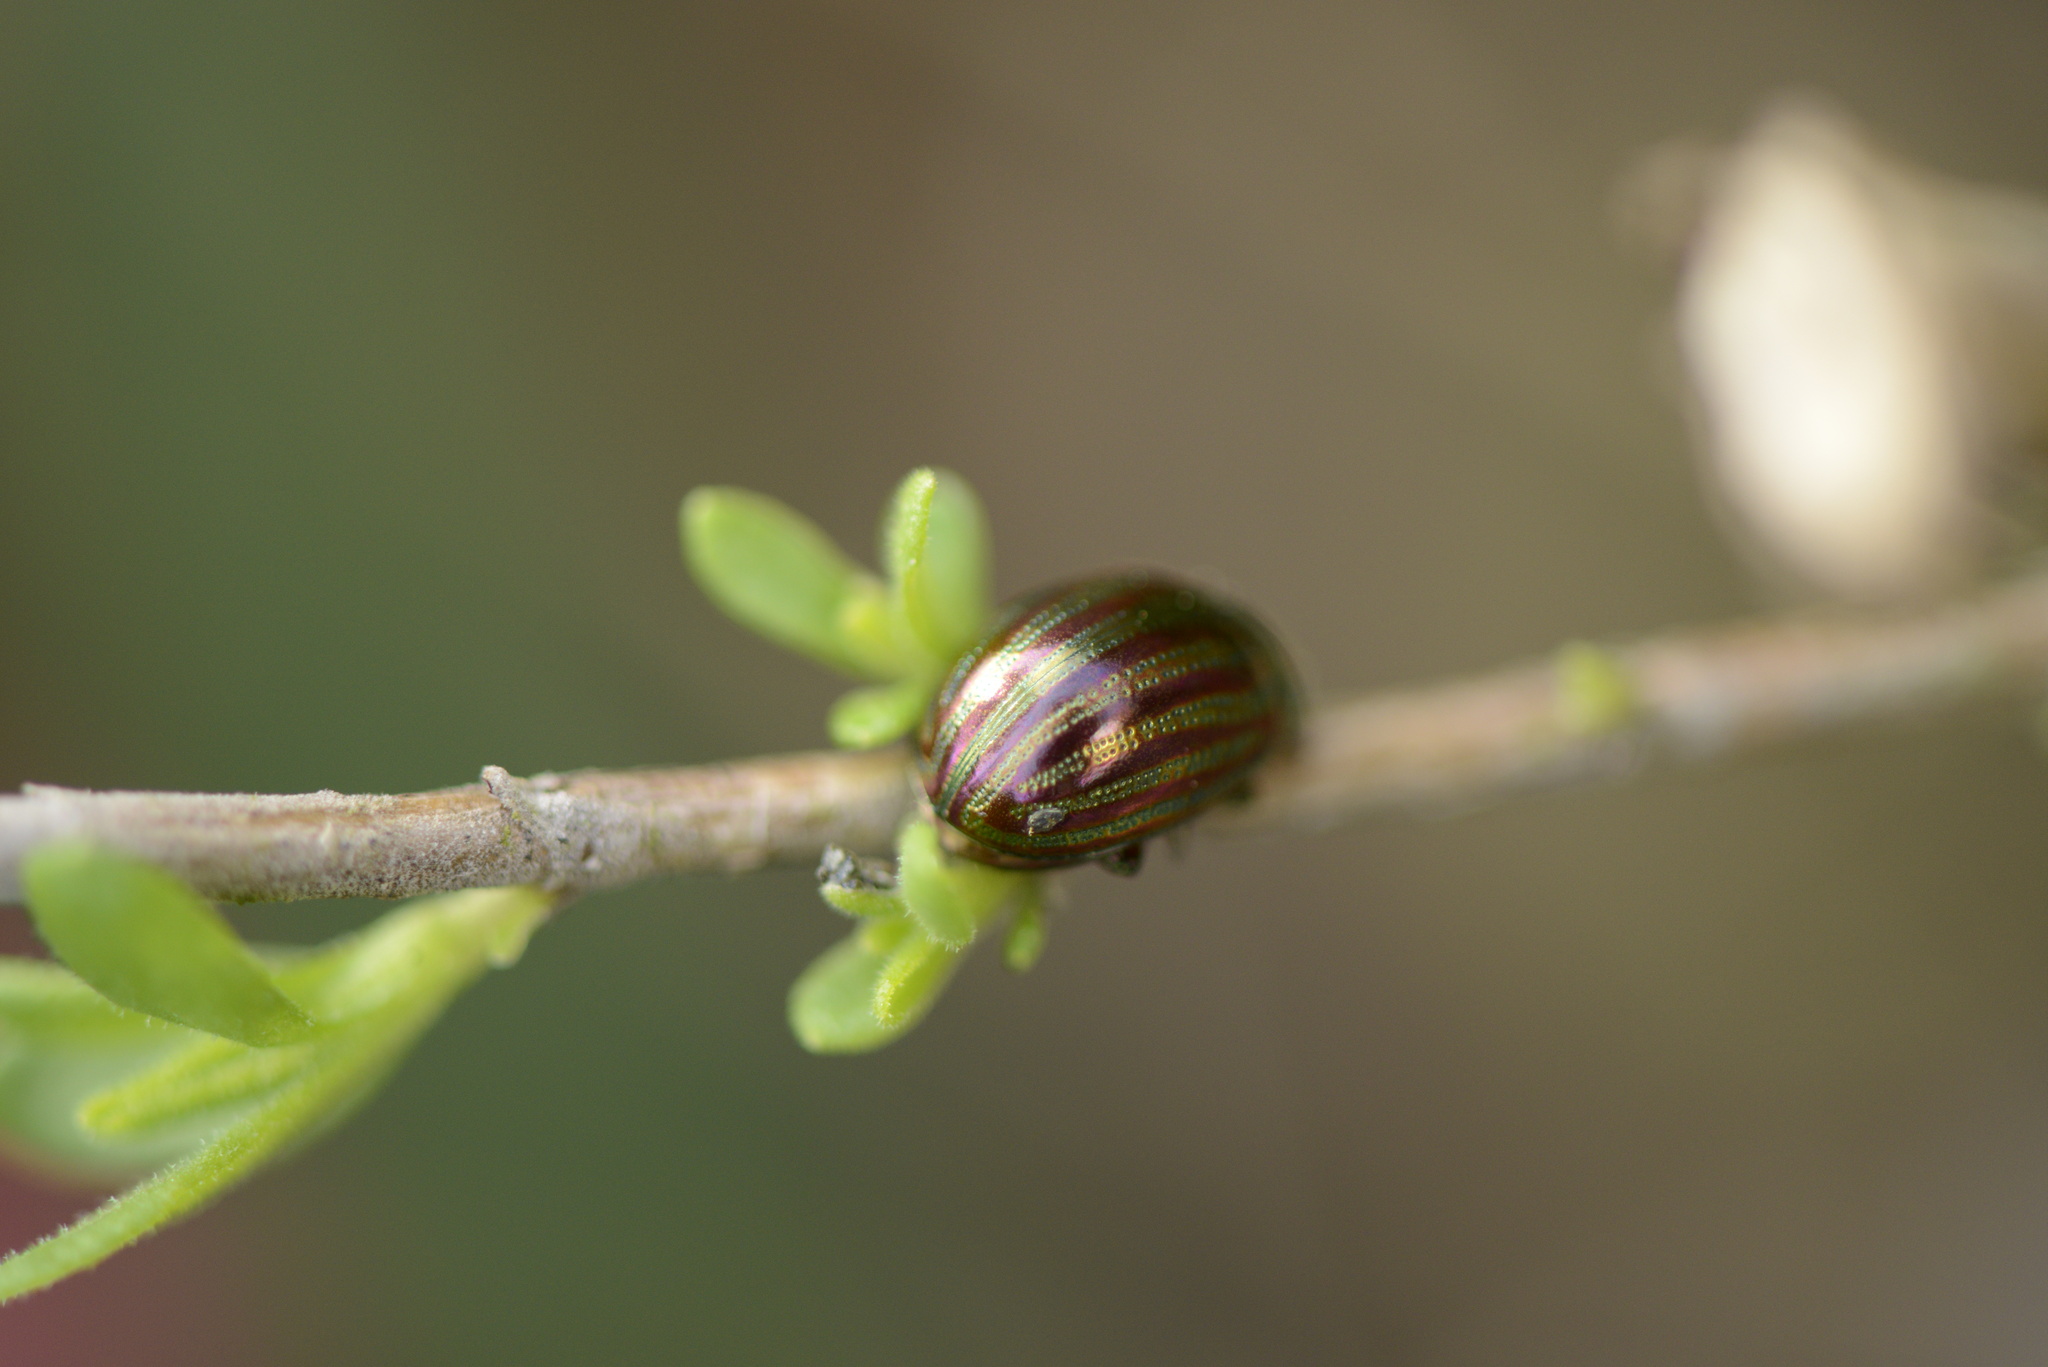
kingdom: Animalia
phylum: Arthropoda
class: Insecta
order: Coleoptera
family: Chrysomelidae
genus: Chrysolina
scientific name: Chrysolina americana
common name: Rosemary beetle
